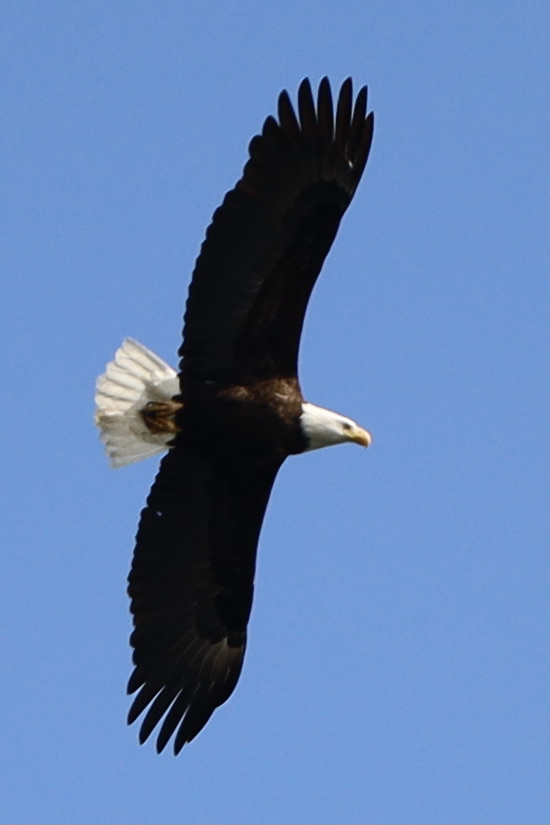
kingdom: Animalia
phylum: Chordata
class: Aves
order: Accipitriformes
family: Accipitridae
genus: Haliaeetus
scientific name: Haliaeetus leucocephalus
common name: Bald eagle
